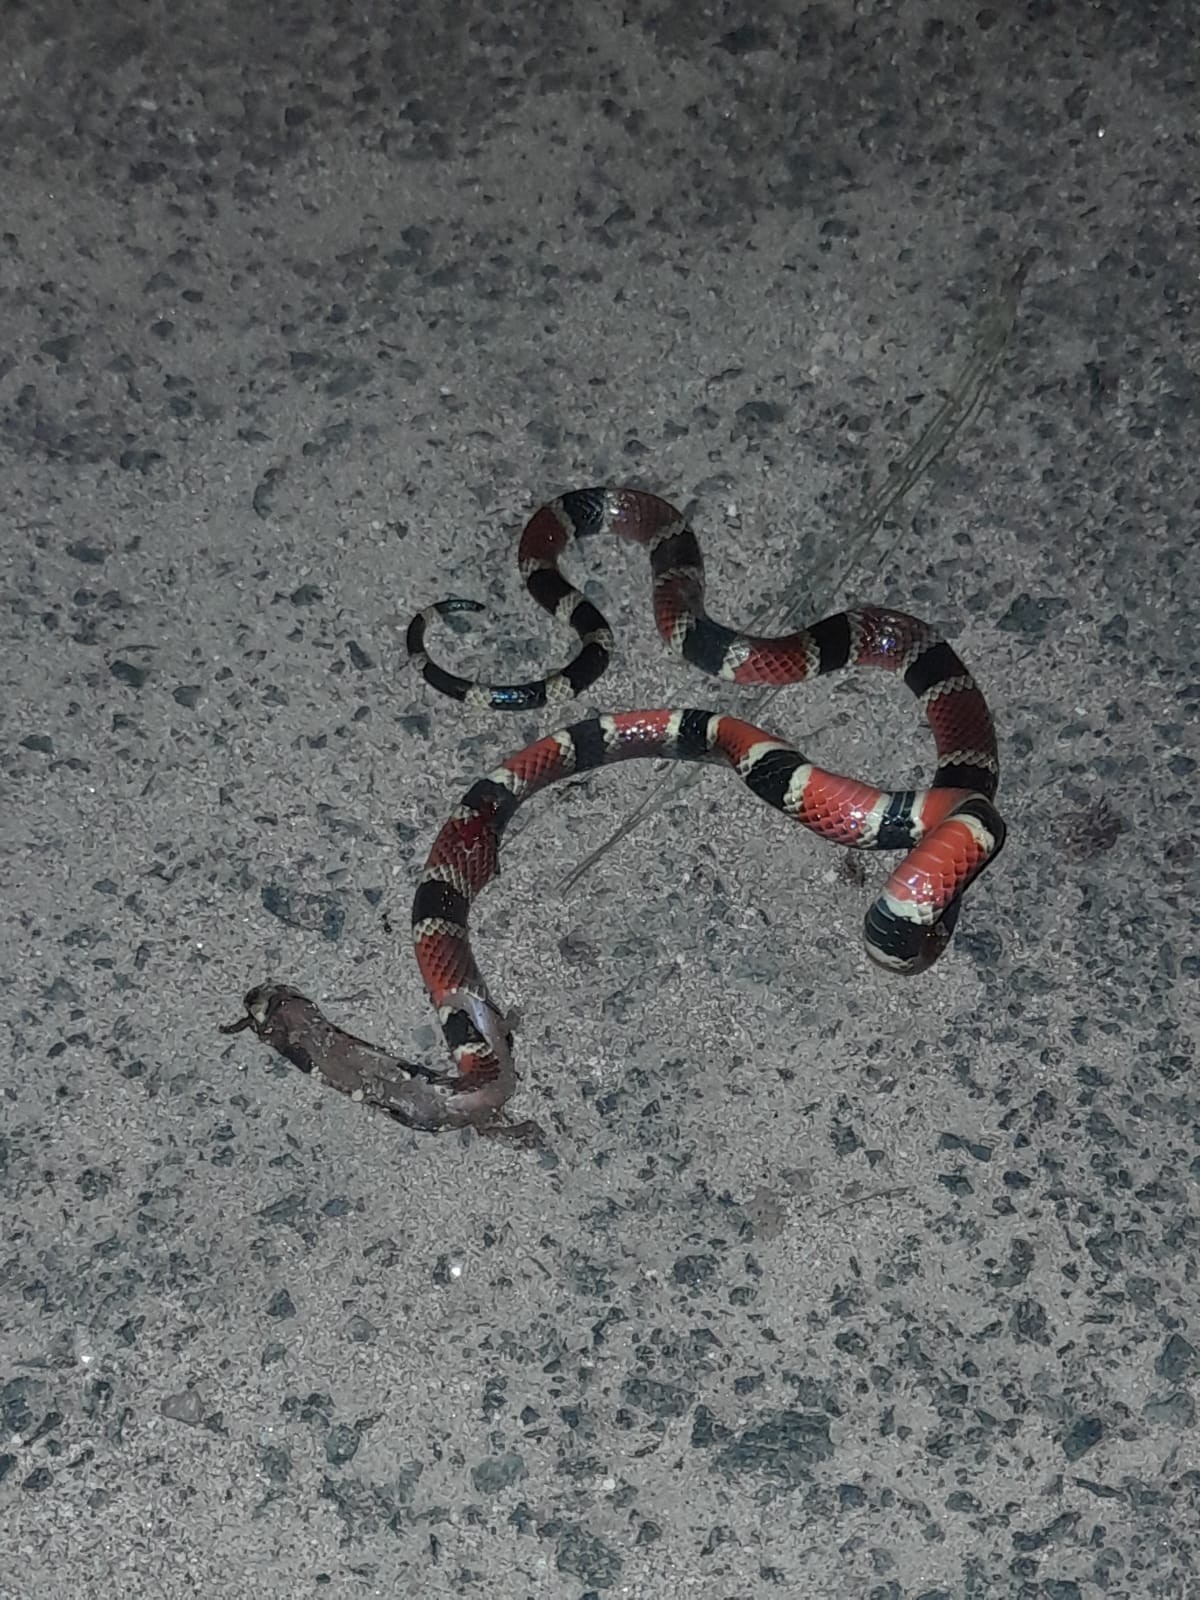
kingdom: Animalia
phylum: Chordata
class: Squamata
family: Elapidae
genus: Micrurus
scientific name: Micrurus nigrocinctus
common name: Babaspul [babaspul]
